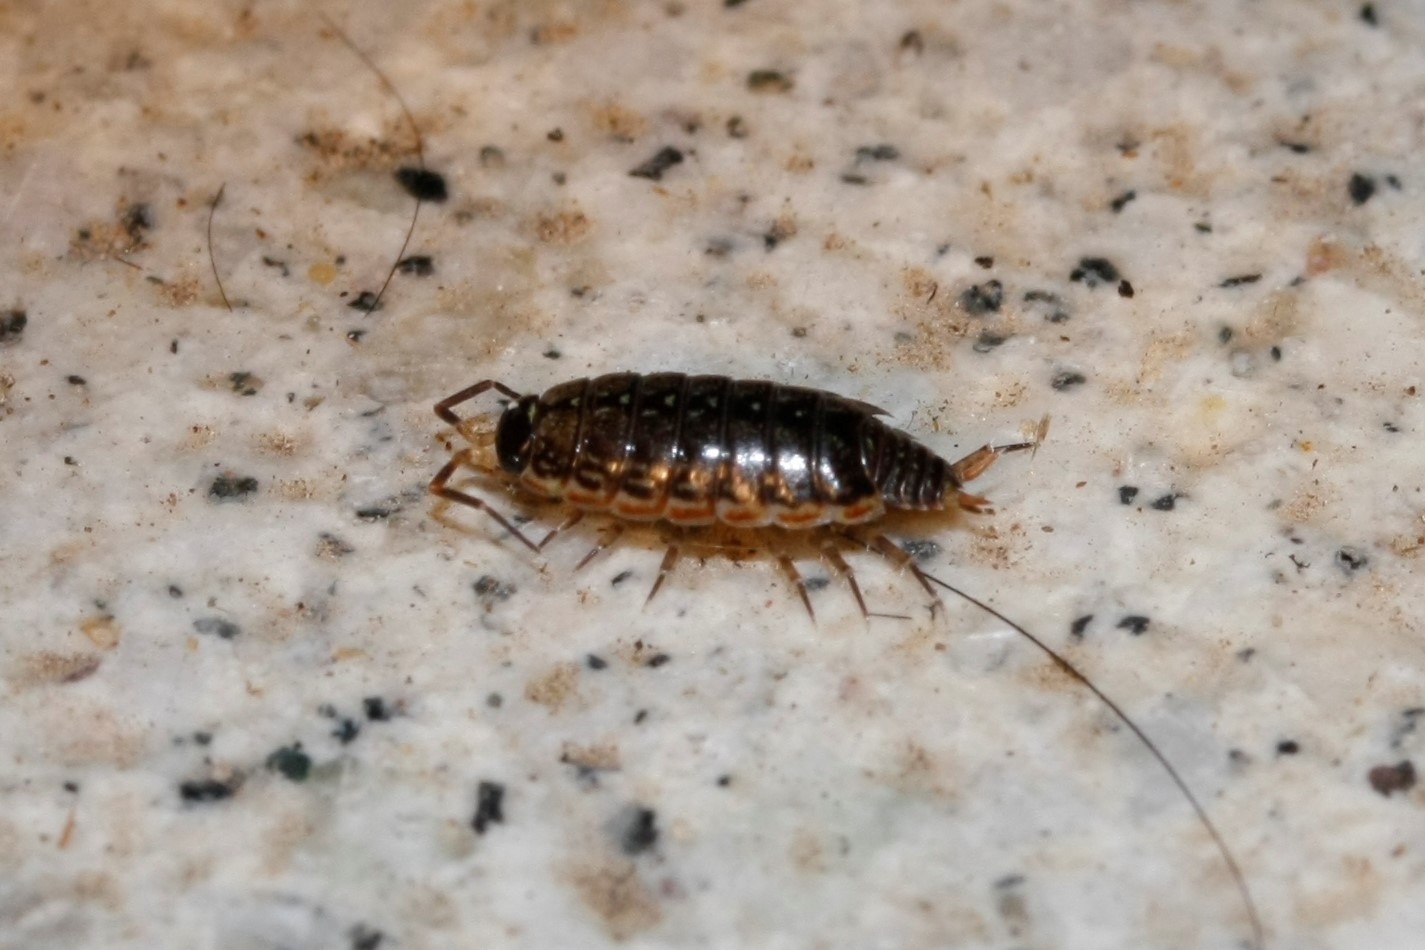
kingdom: Animalia
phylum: Arthropoda
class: Malacostraca
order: Isopoda
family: Philosciidae
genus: Philoscia
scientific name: Philoscia muscorum
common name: Common striped woodlouse
